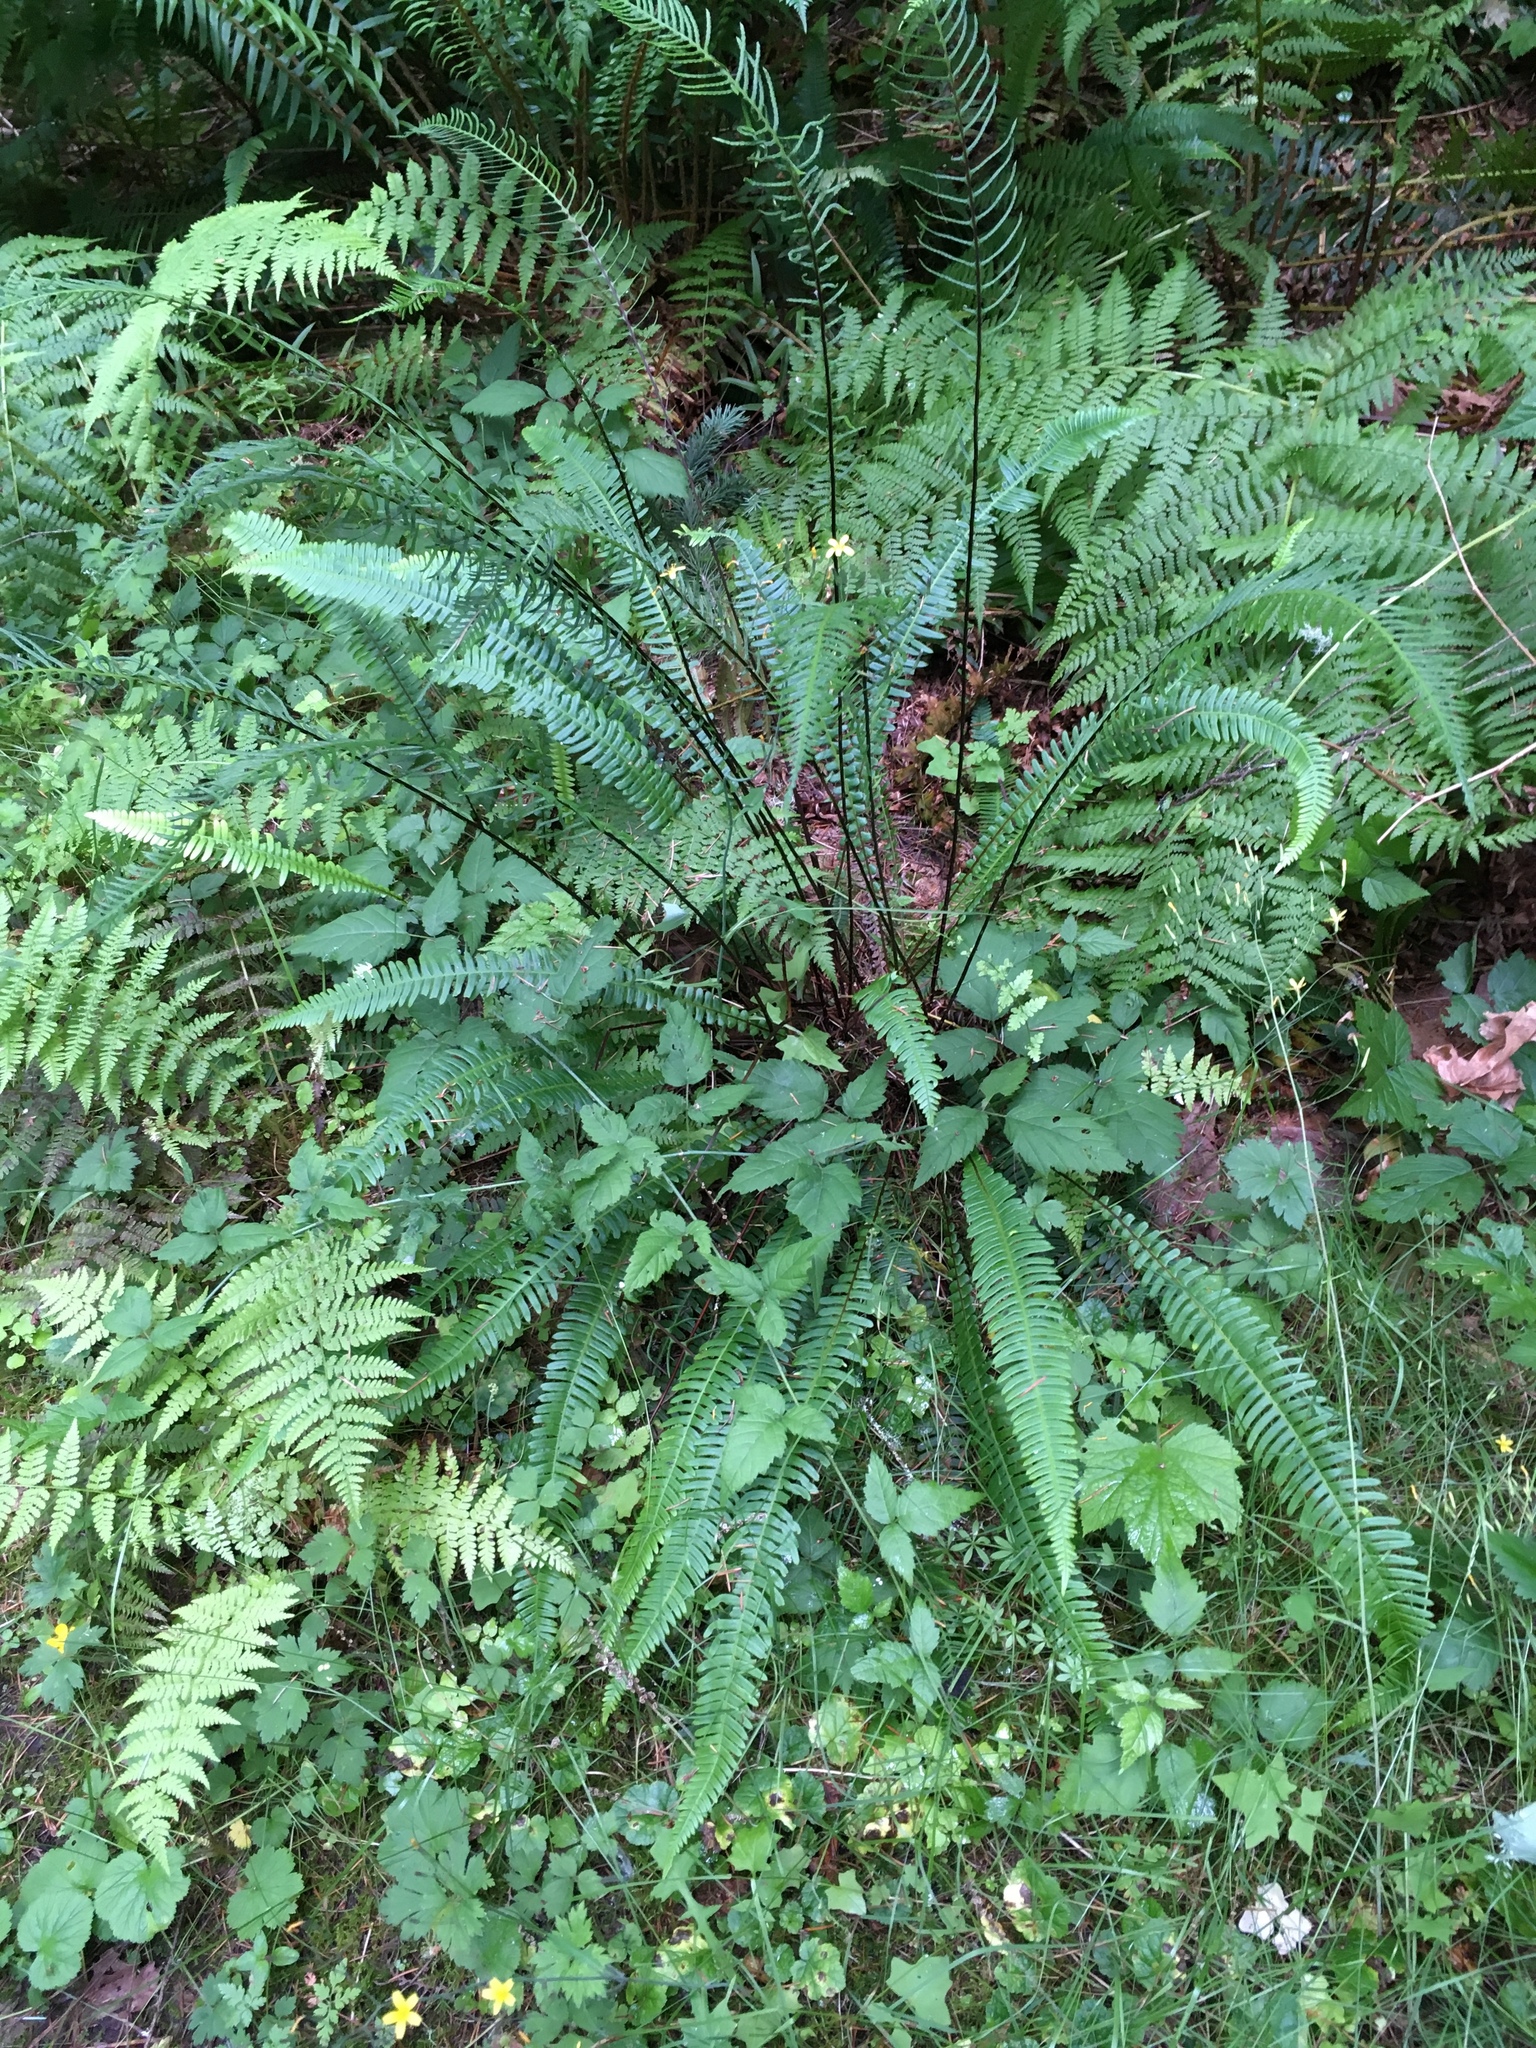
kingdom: Plantae
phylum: Tracheophyta
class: Polypodiopsida
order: Polypodiales
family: Blechnaceae
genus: Struthiopteris
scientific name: Struthiopteris spicant
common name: Deer fern
